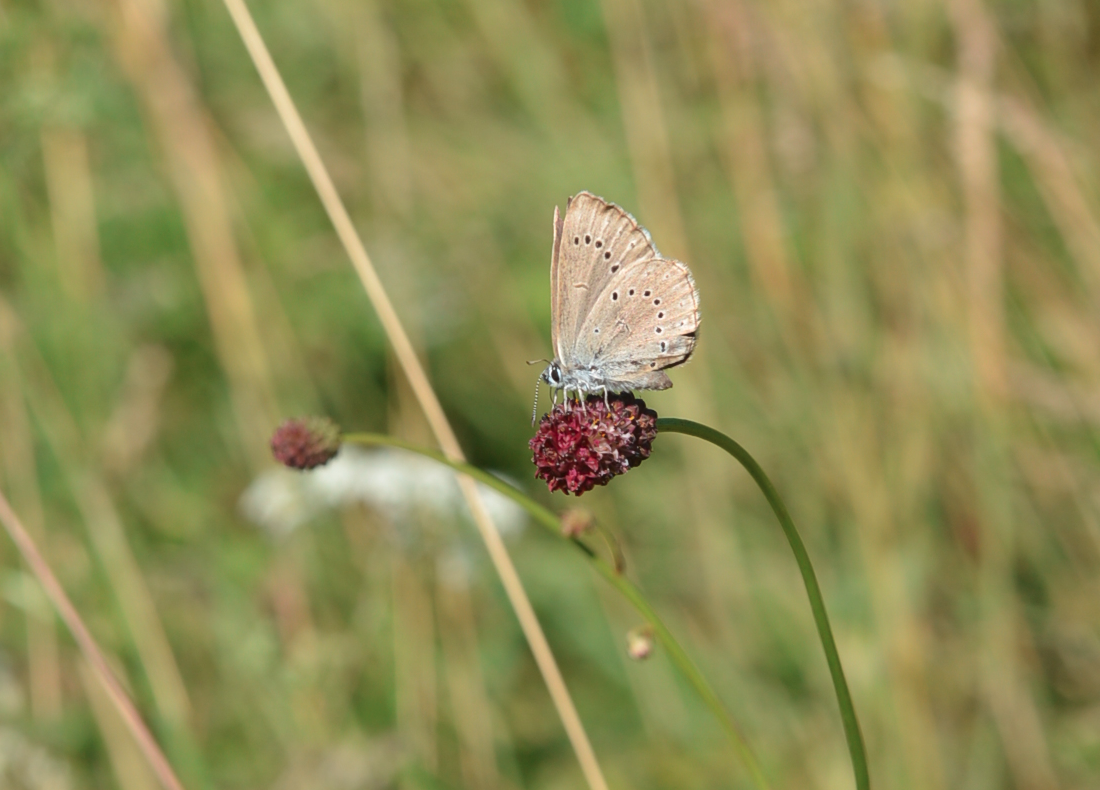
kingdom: Animalia
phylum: Arthropoda
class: Insecta
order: Lepidoptera
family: Lycaenidae
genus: Phengaris
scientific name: Phengaris teleius
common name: Scarce large blue
